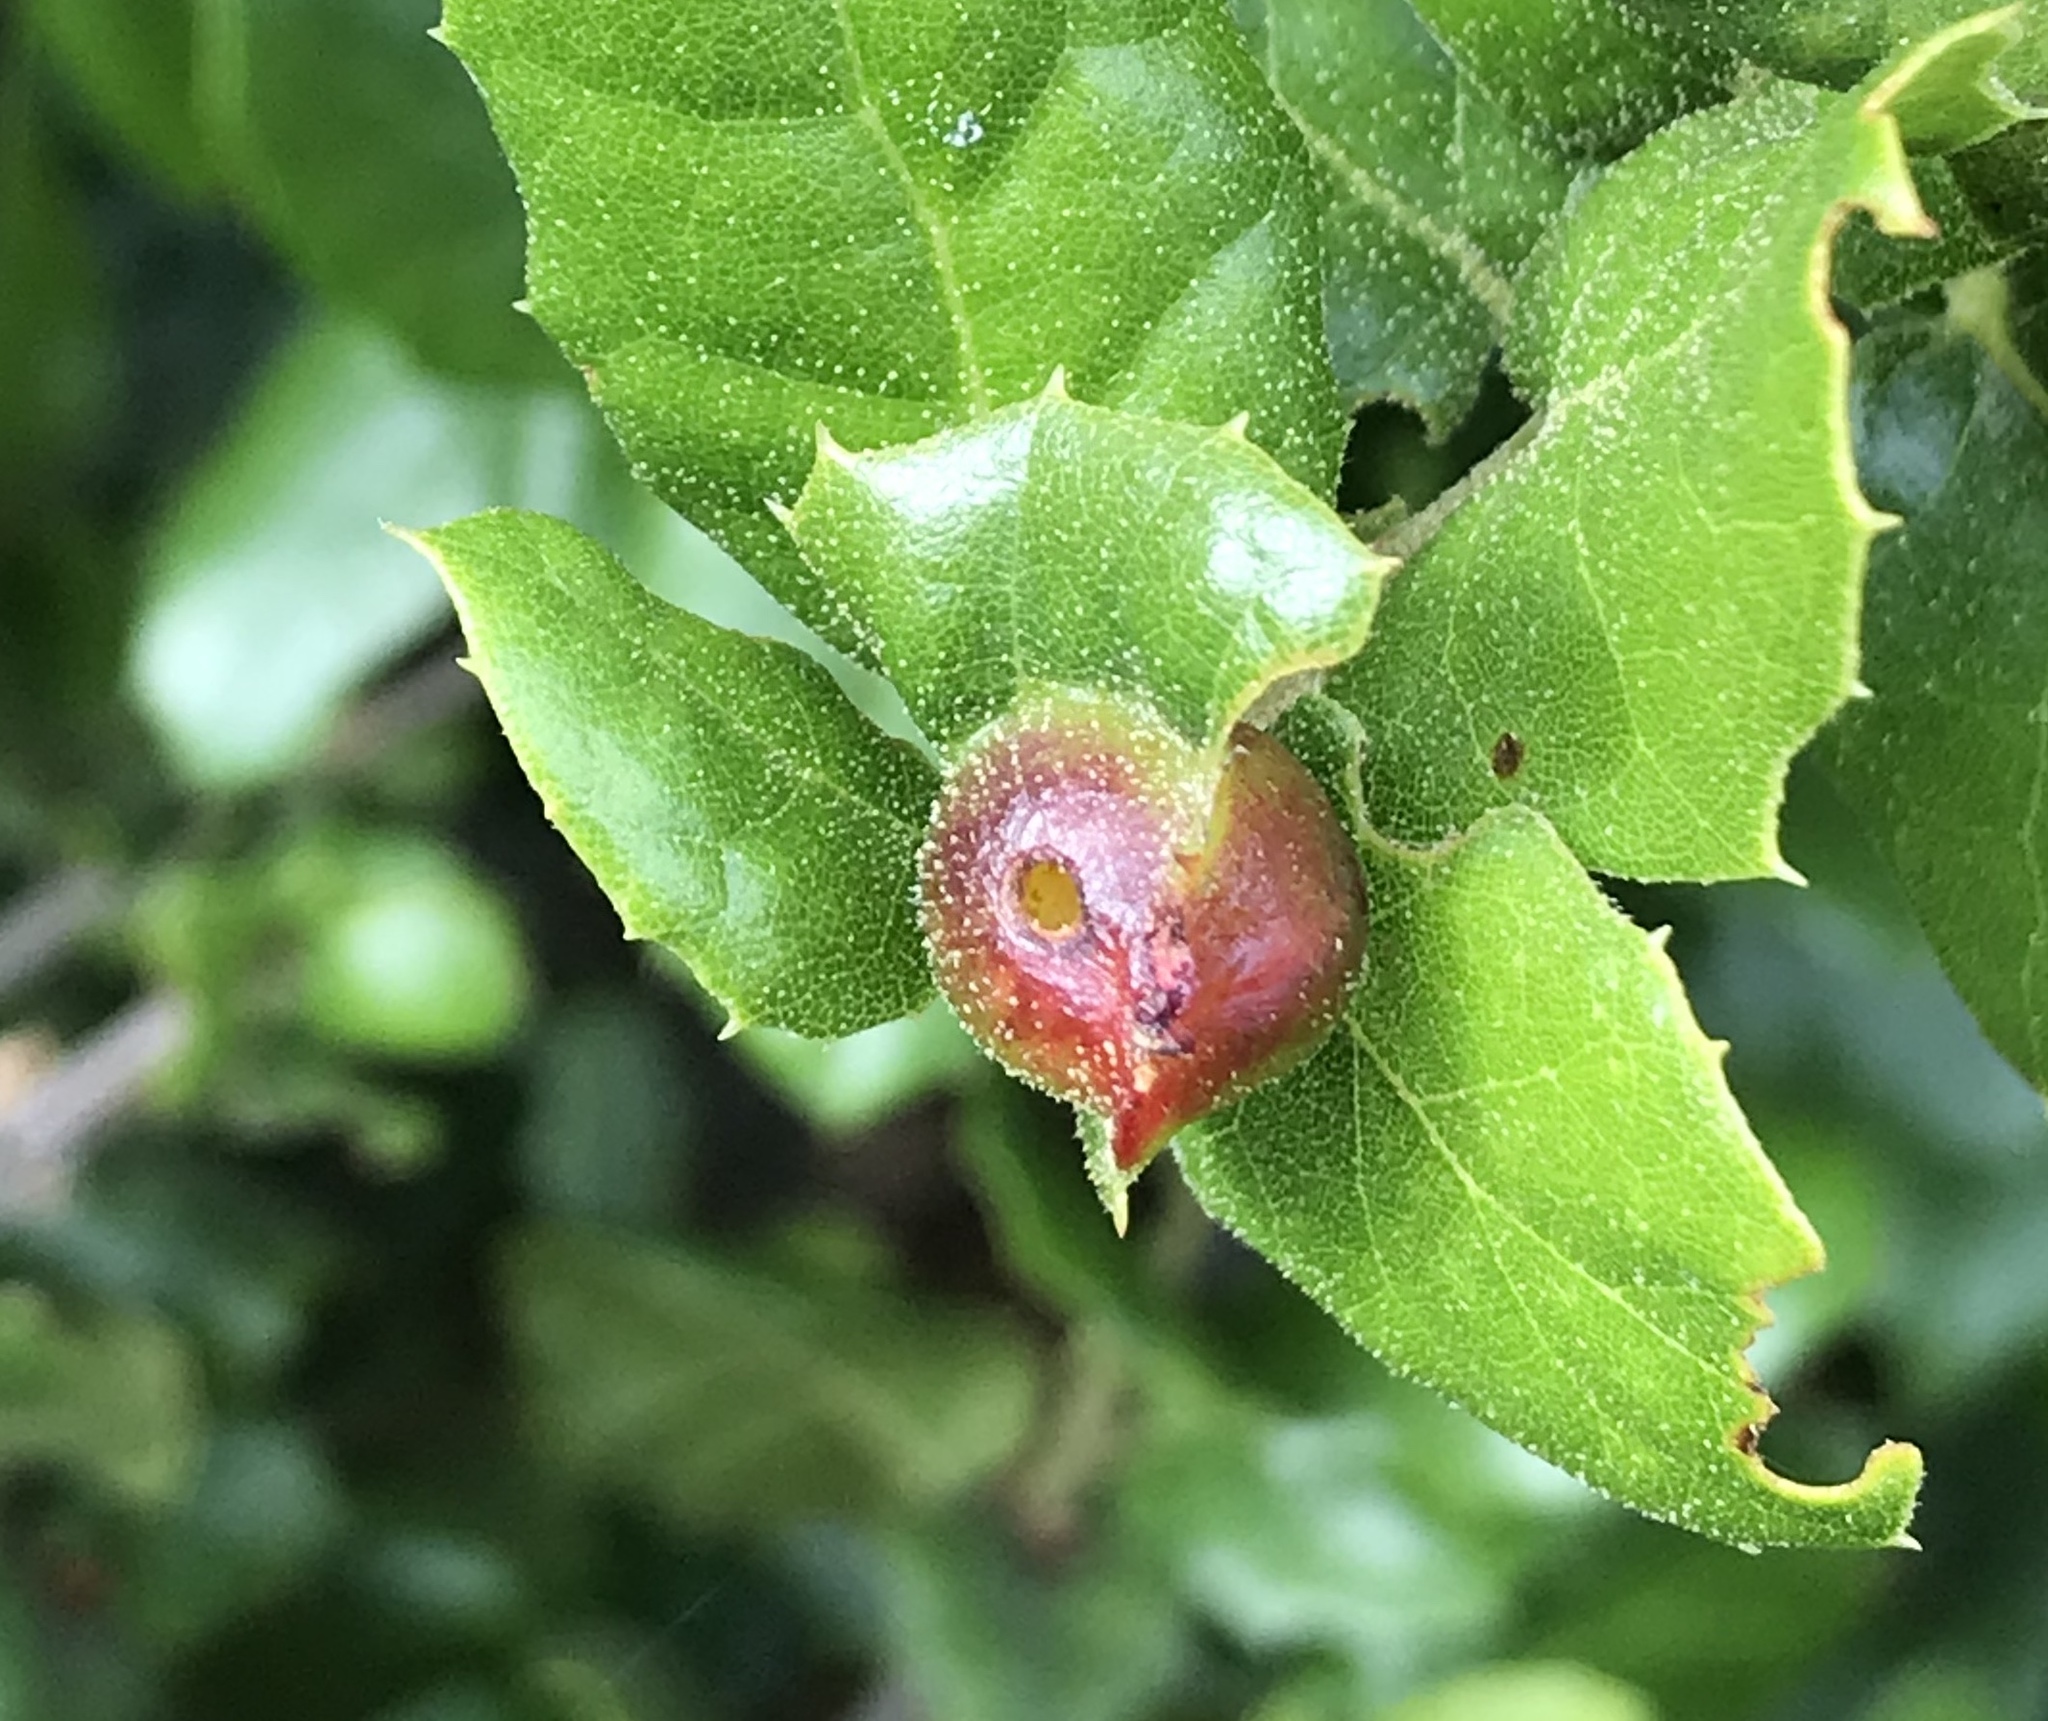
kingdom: Animalia
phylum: Arthropoda
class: Insecta
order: Hymenoptera
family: Cynipidae
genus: Callirhytis
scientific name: Callirhytis
